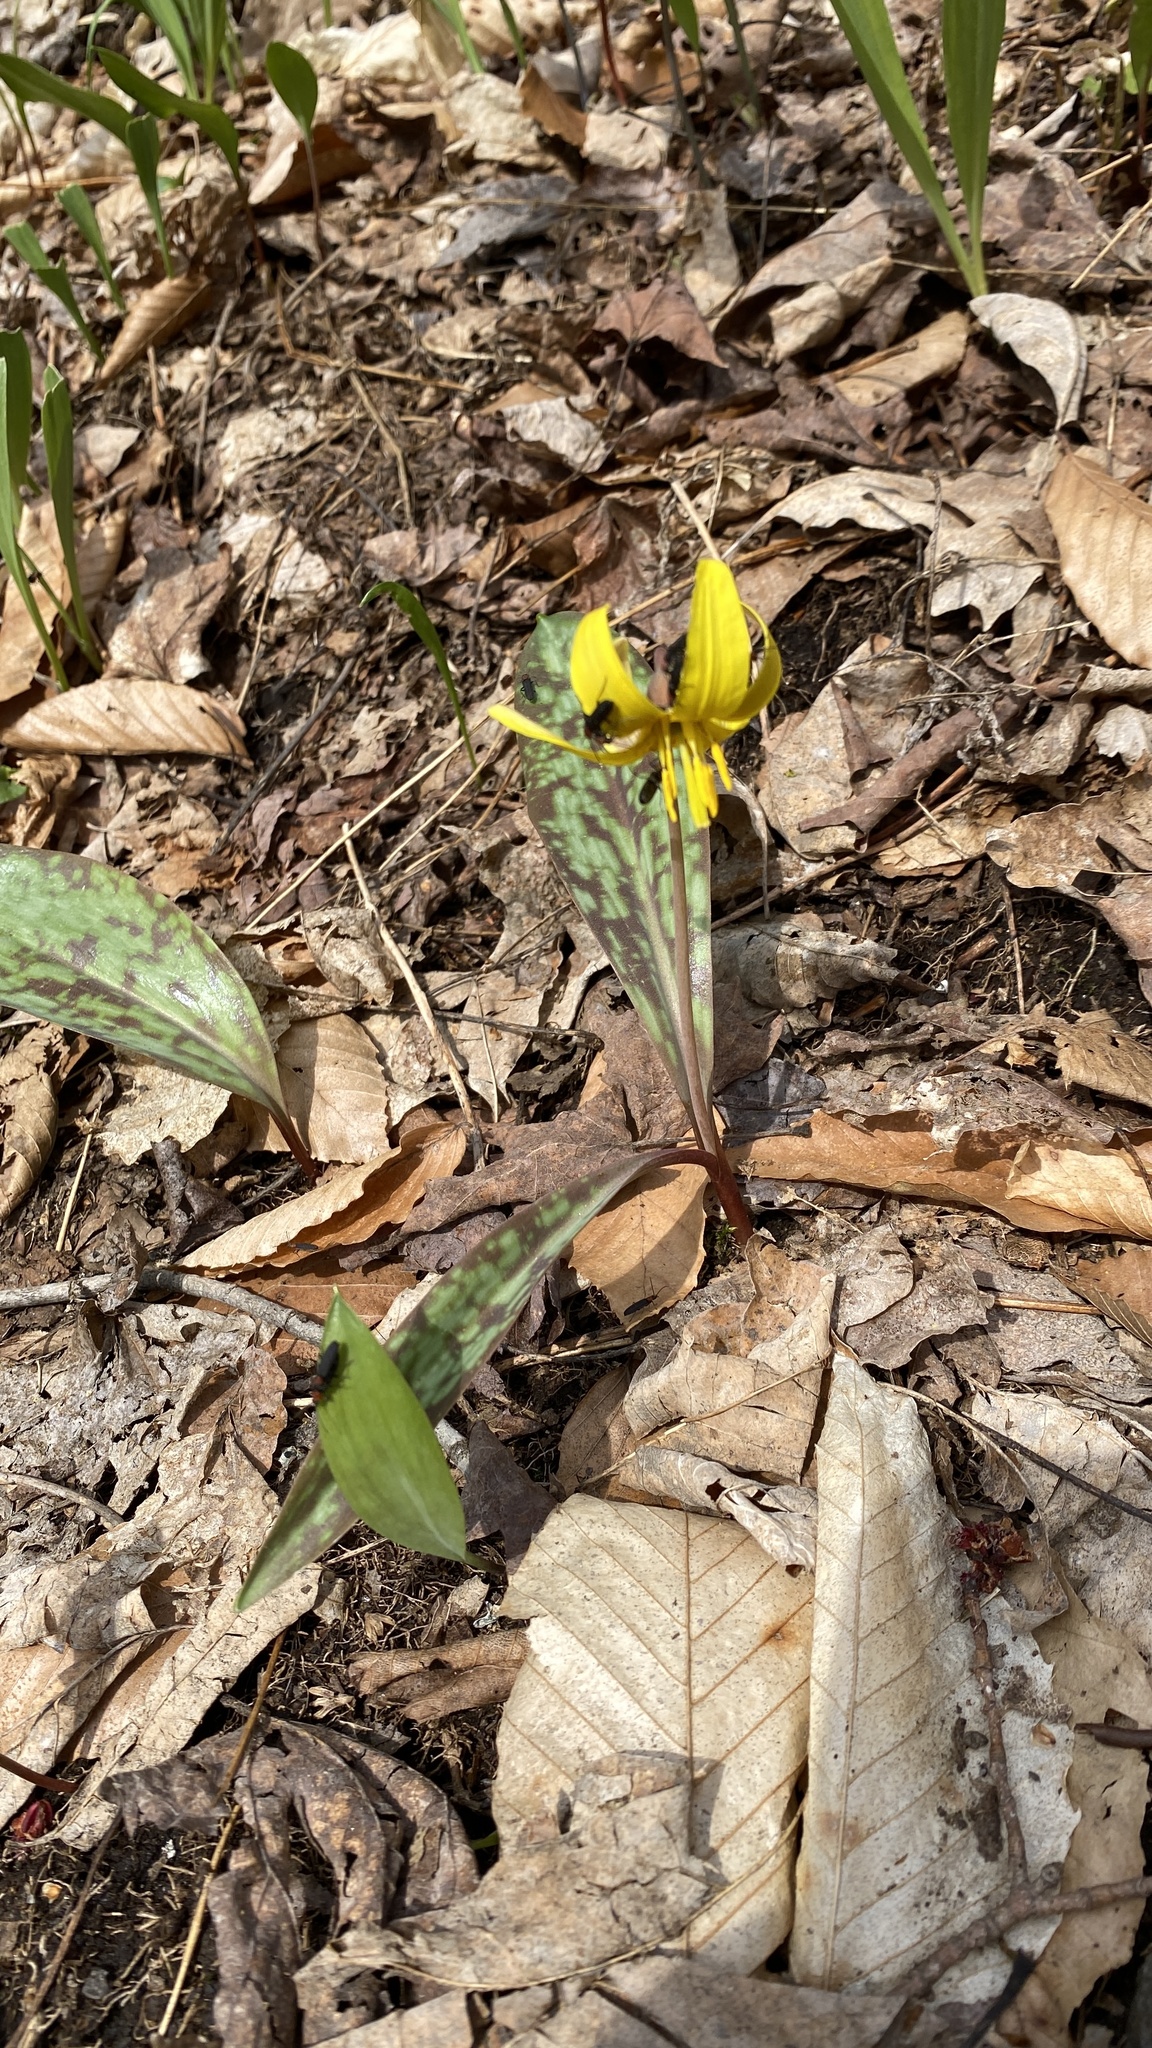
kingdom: Plantae
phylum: Tracheophyta
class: Liliopsida
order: Liliales
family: Liliaceae
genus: Erythronium
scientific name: Erythronium americanum
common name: Yellow adder's-tongue
